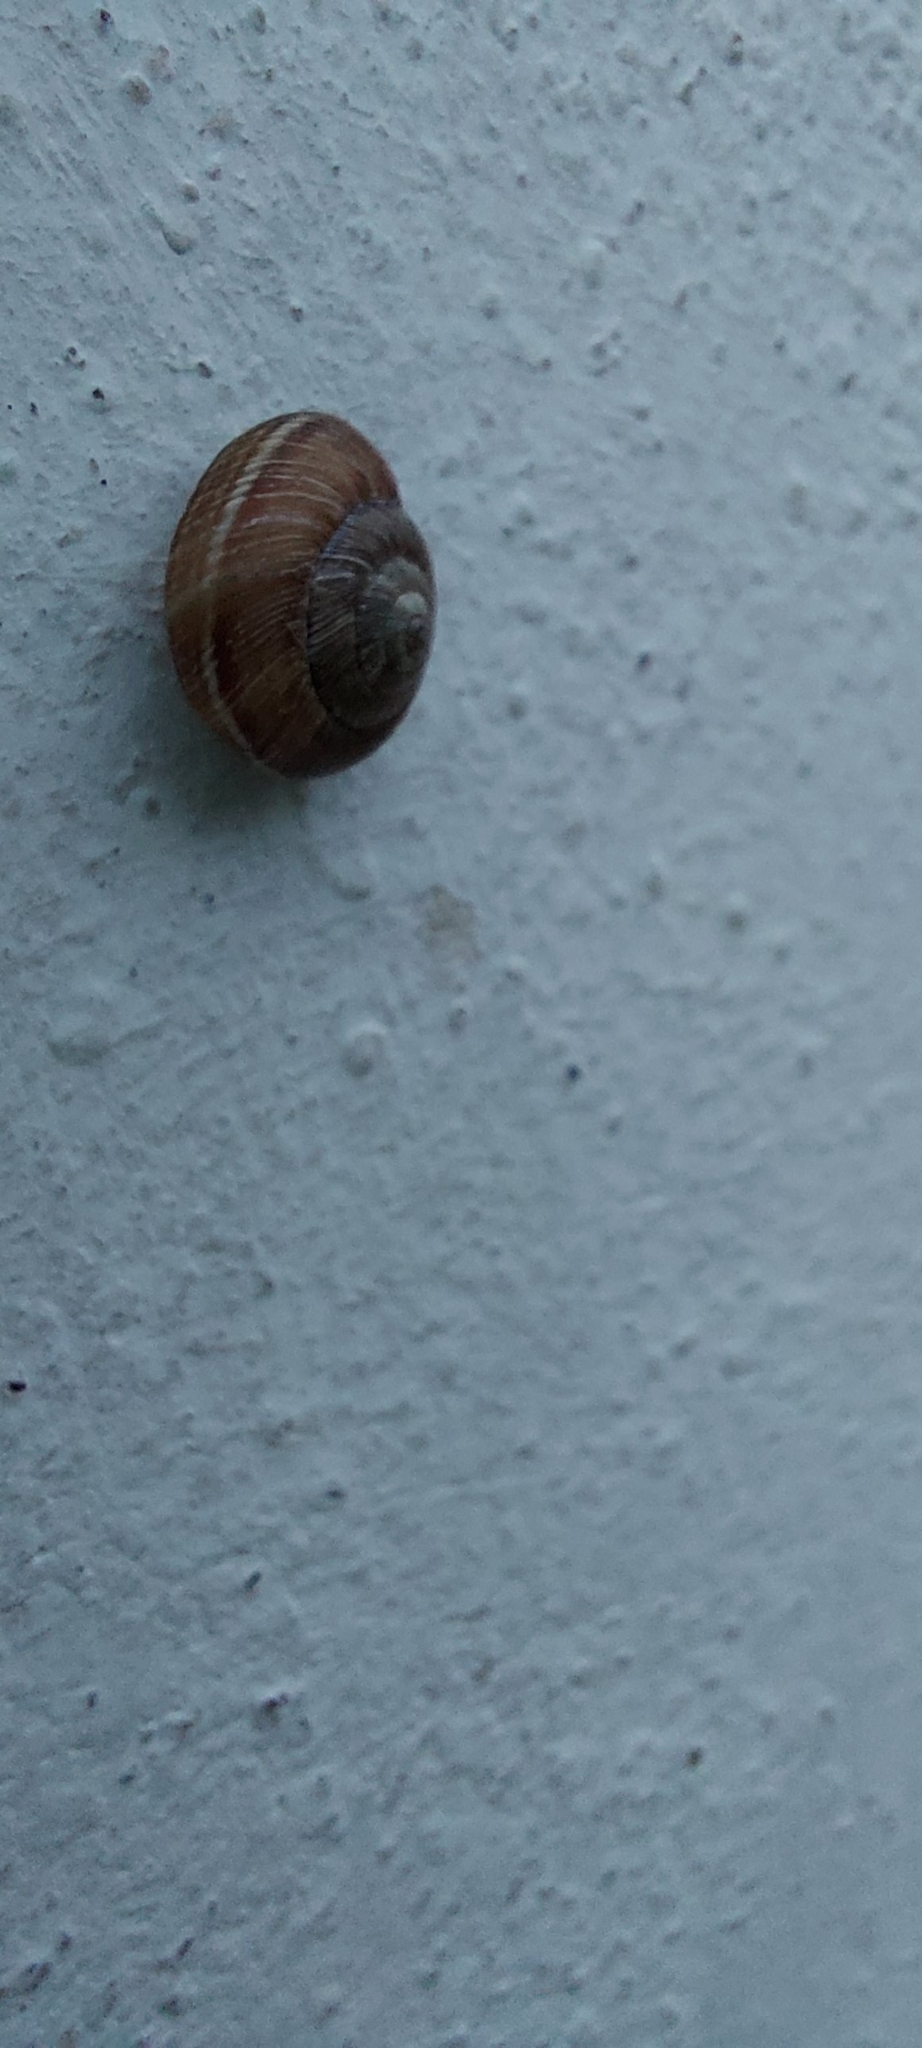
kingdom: Animalia
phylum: Mollusca
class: Gastropoda
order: Stylommatophora
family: Geomitridae
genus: Cernuella
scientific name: Cernuella virgata
